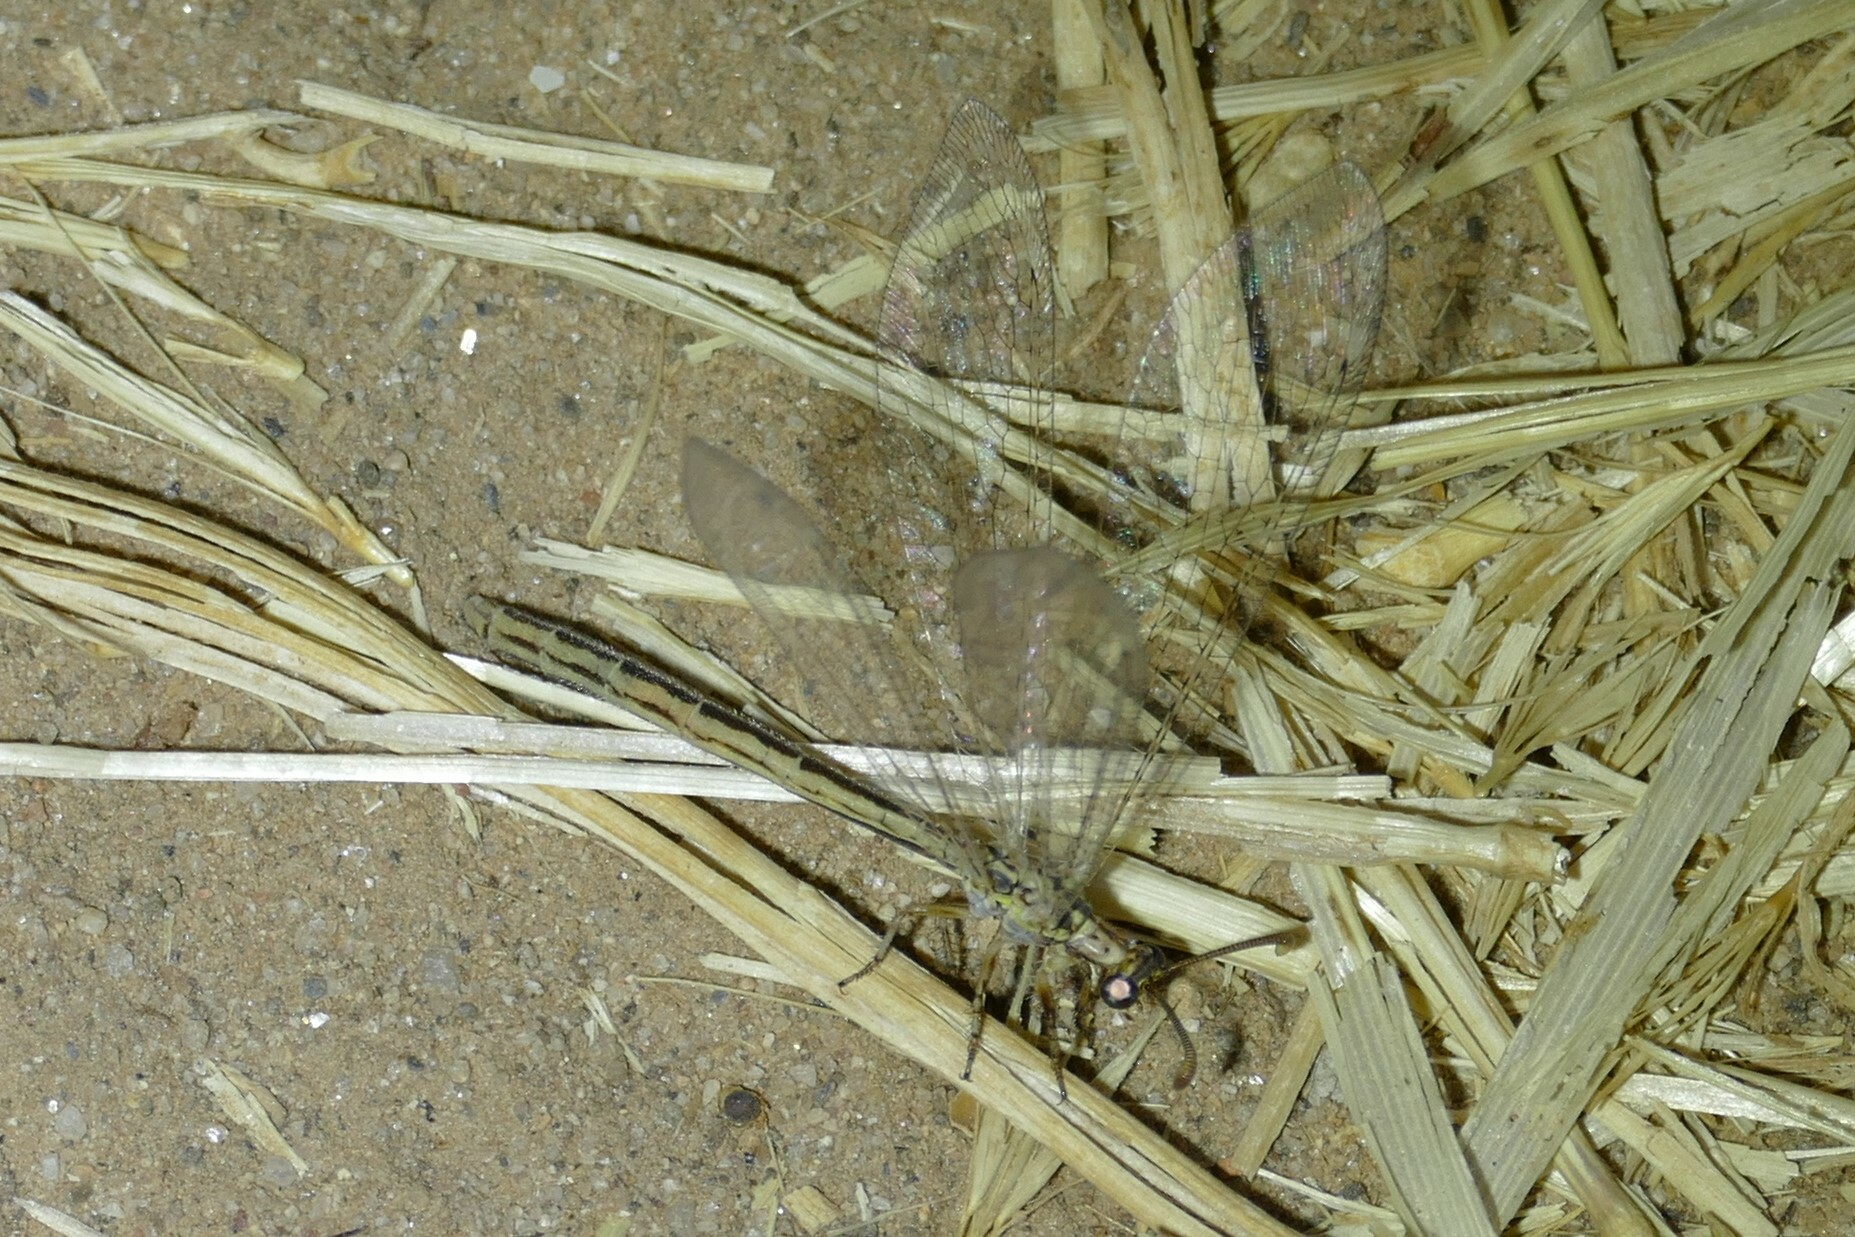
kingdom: Animalia
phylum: Arthropoda
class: Insecta
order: Neuroptera
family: Myrmeleontidae
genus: Macronemurus
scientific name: Macronemurus appendiculatus
